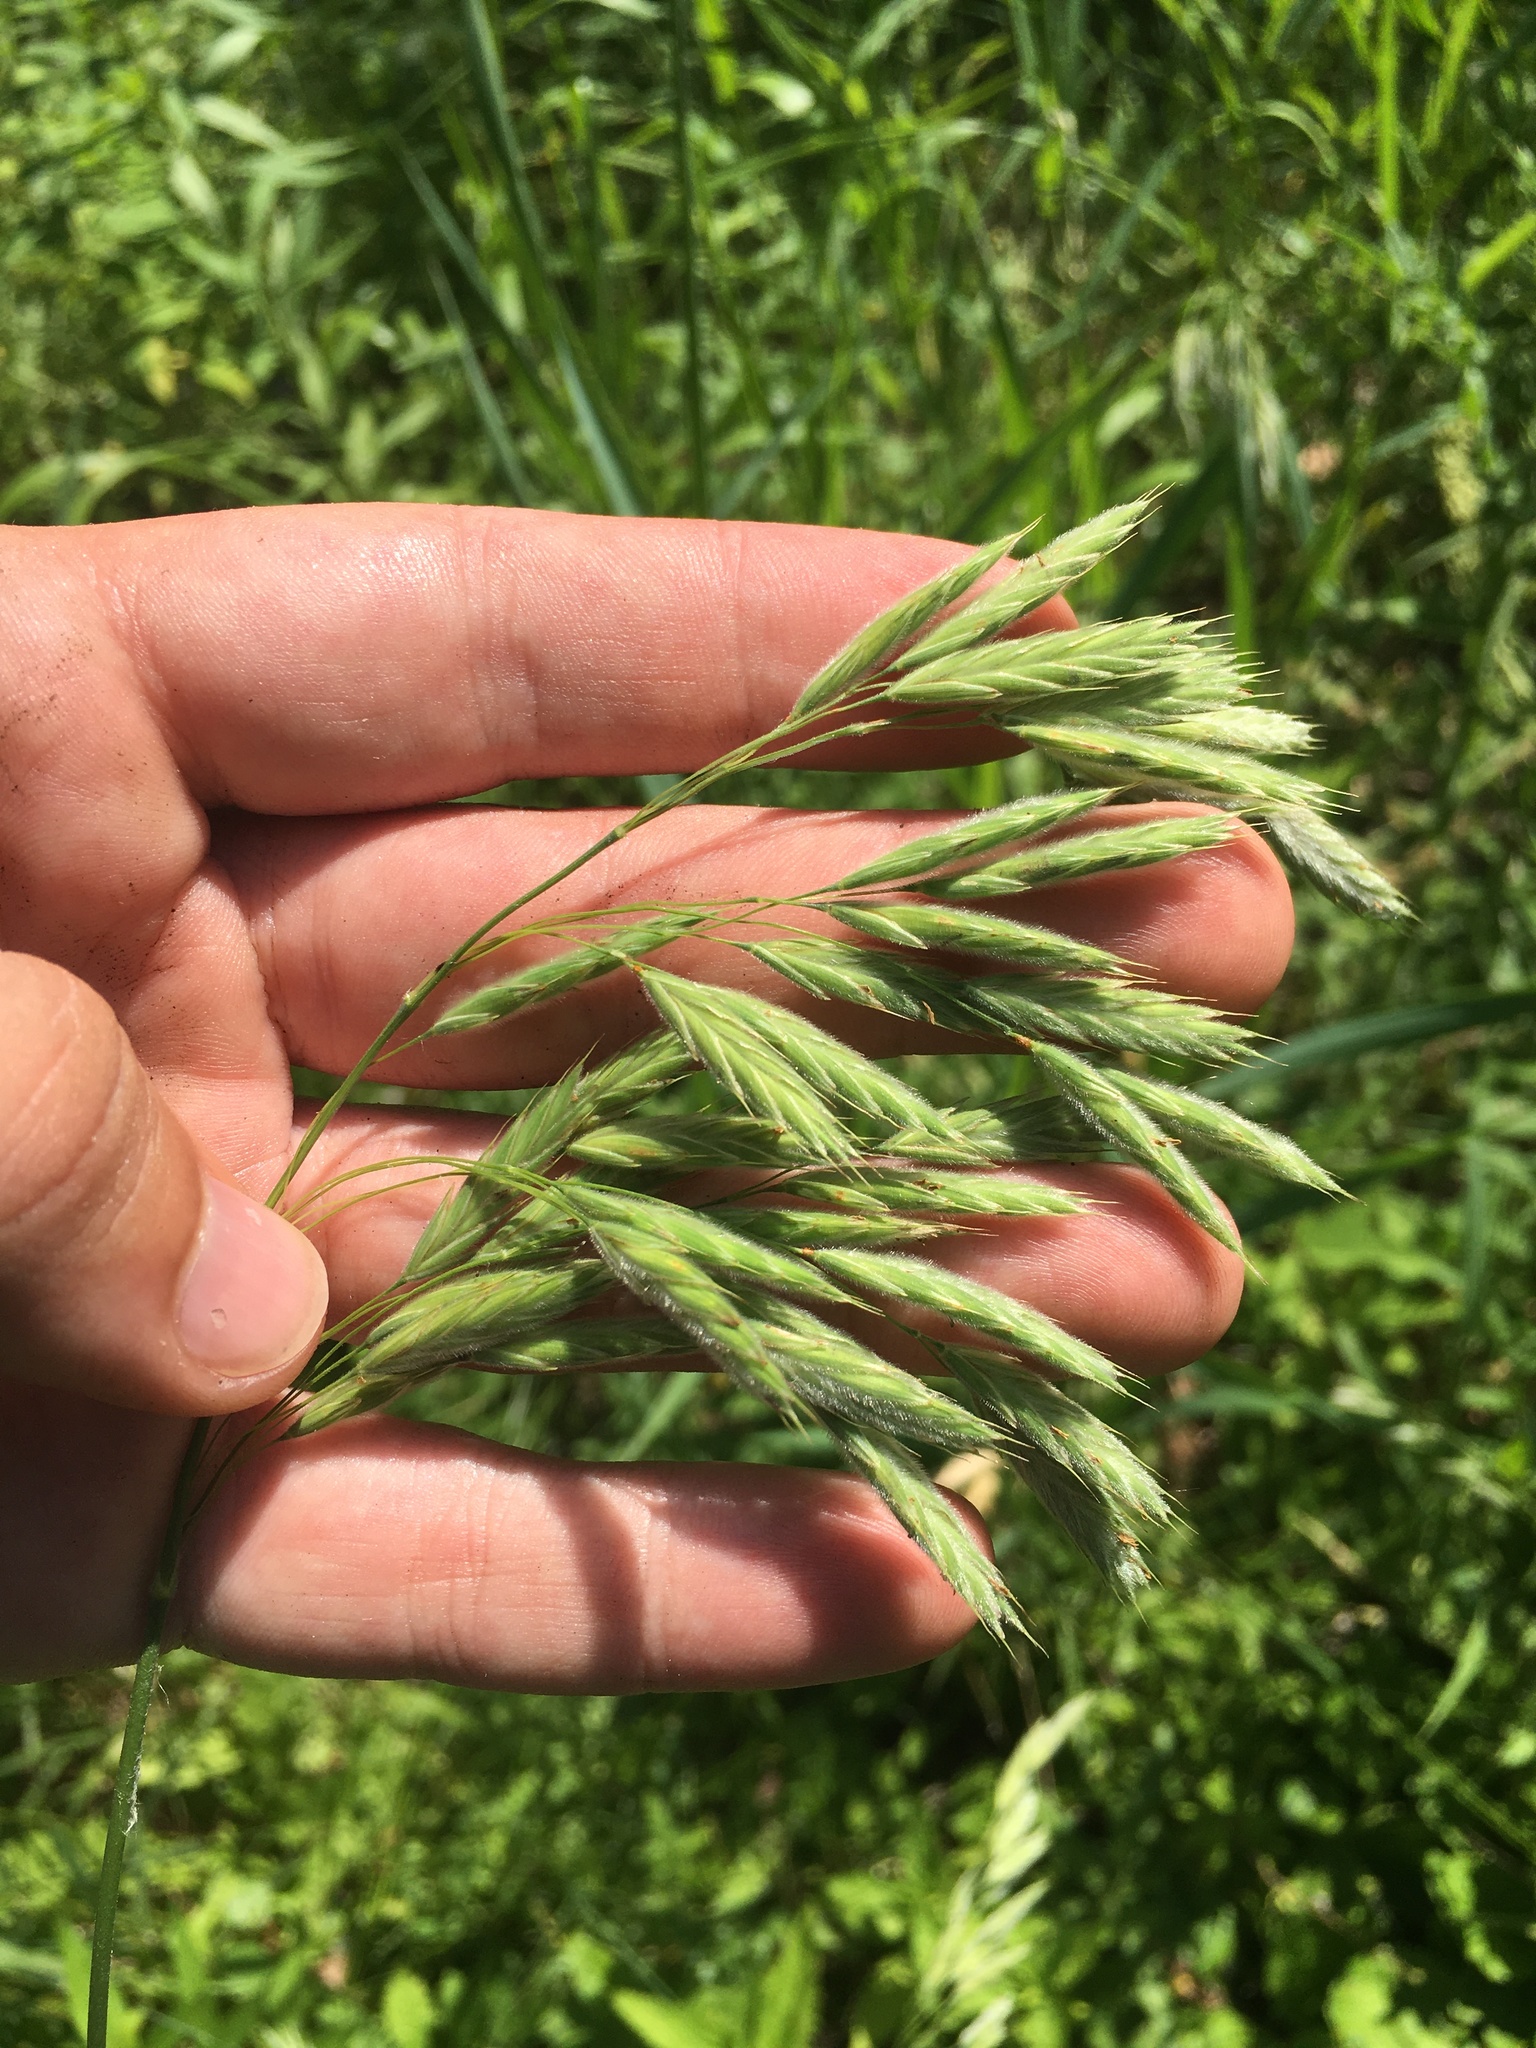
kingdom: Plantae
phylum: Tracheophyta
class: Liliopsida
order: Poales
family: Poaceae
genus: Bromus
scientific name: Bromus ciliatus
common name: Fringe brome
